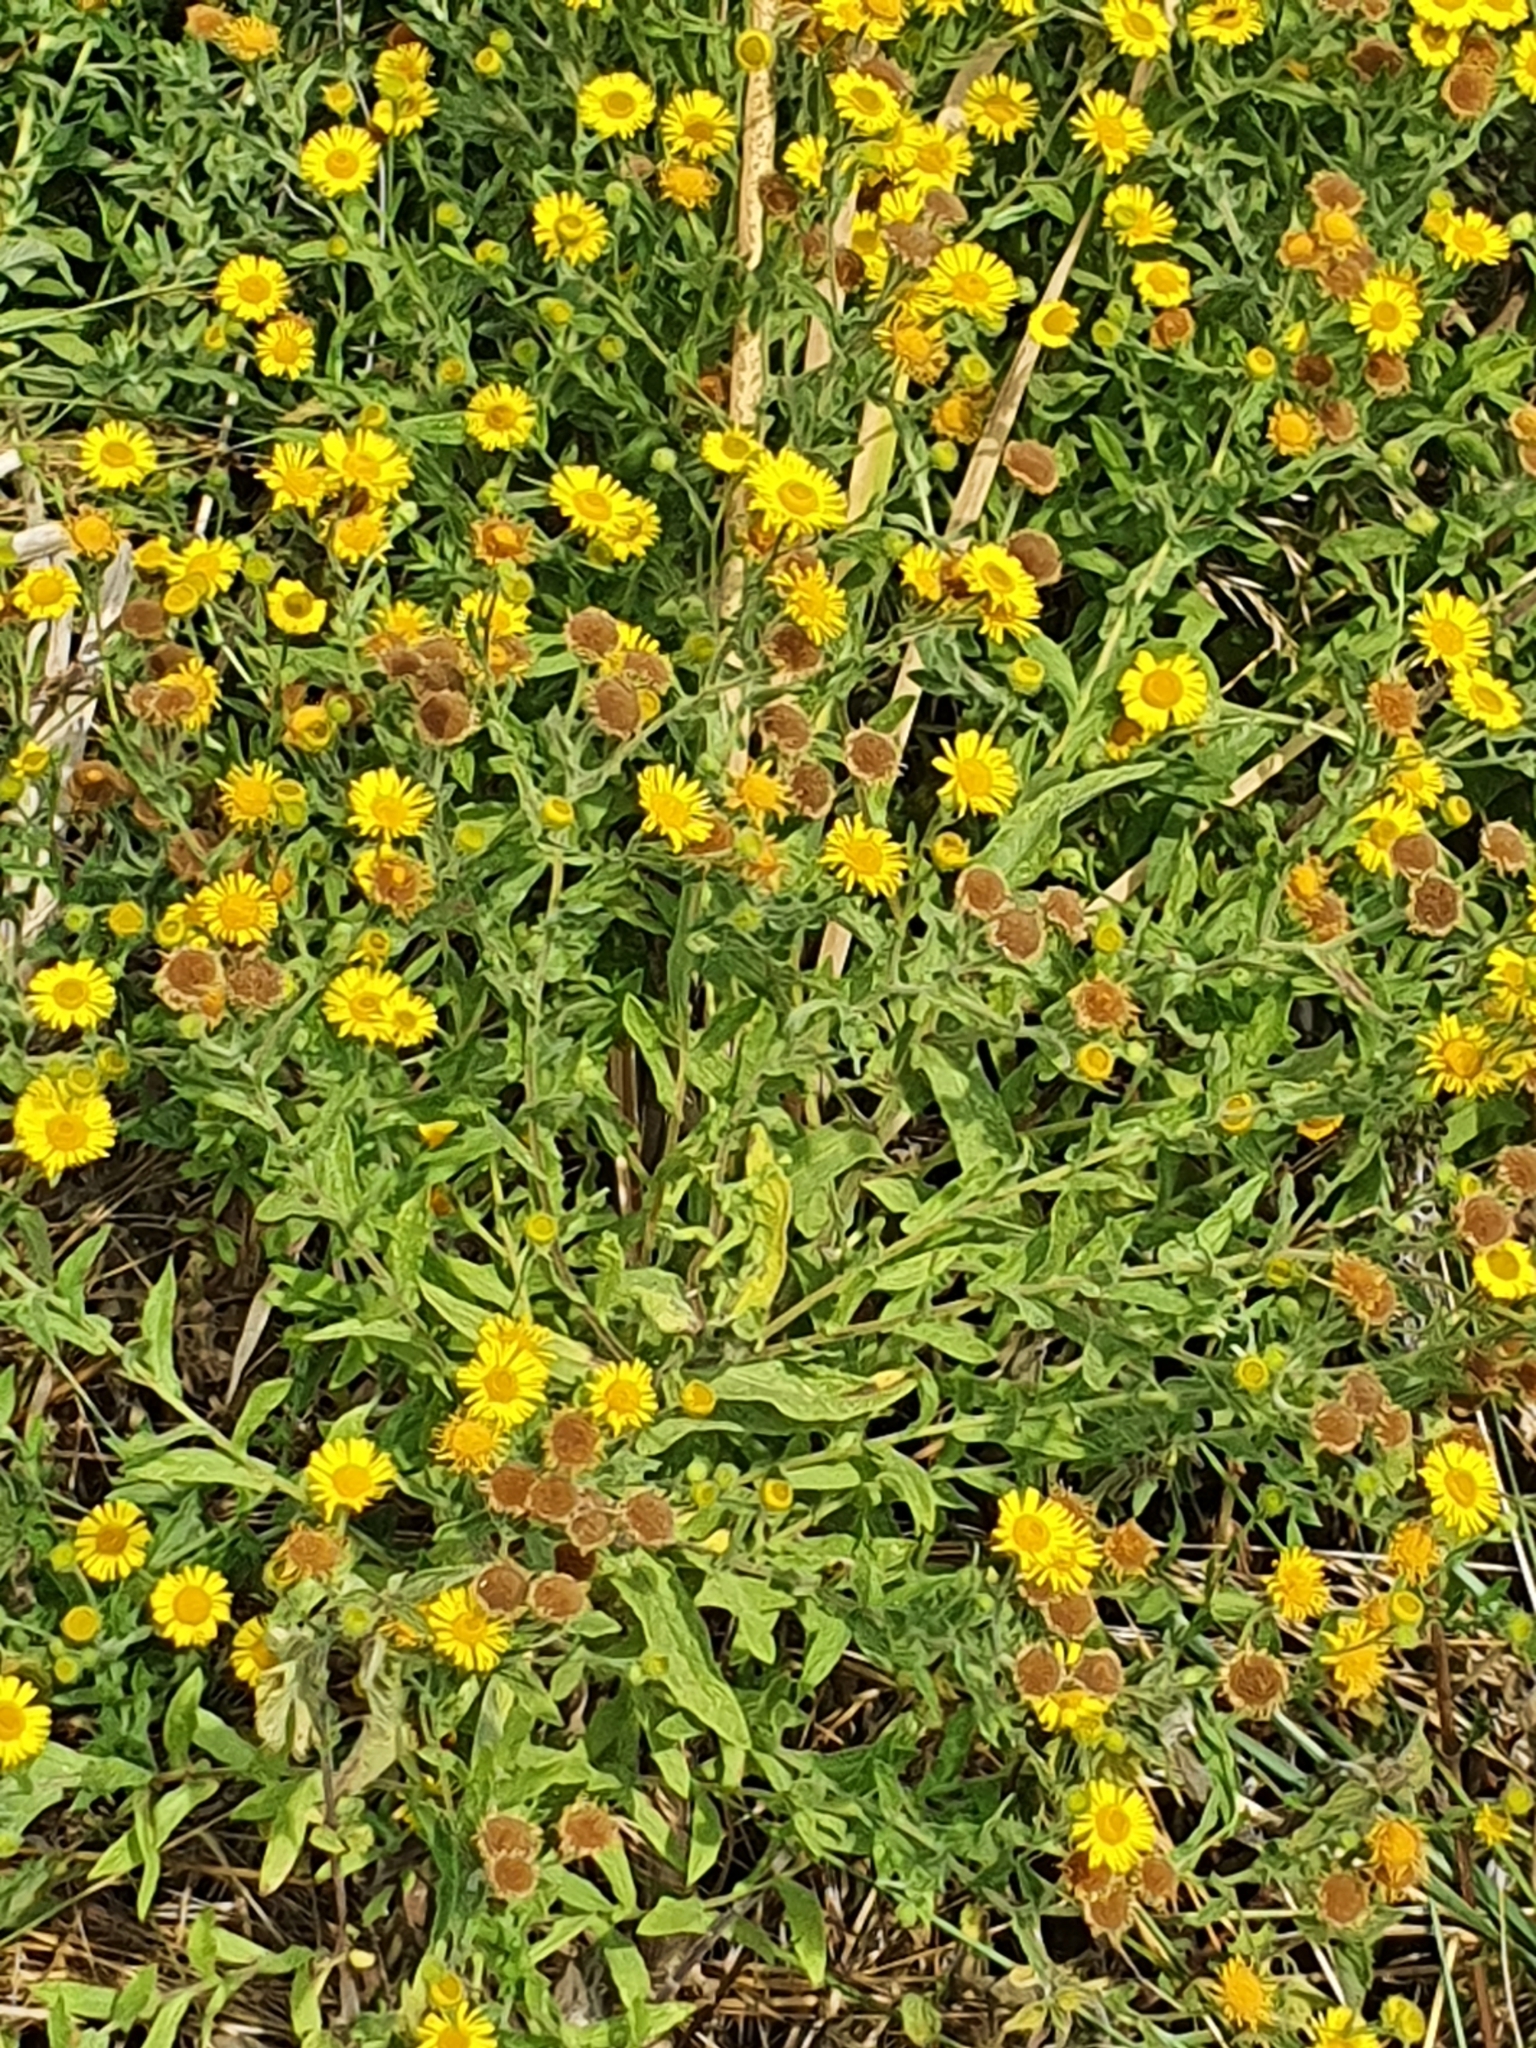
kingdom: Plantae
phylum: Tracheophyta
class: Magnoliopsida
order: Asterales
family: Asteraceae
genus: Pulicaria
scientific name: Pulicaria dysenterica
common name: Common fleabane
